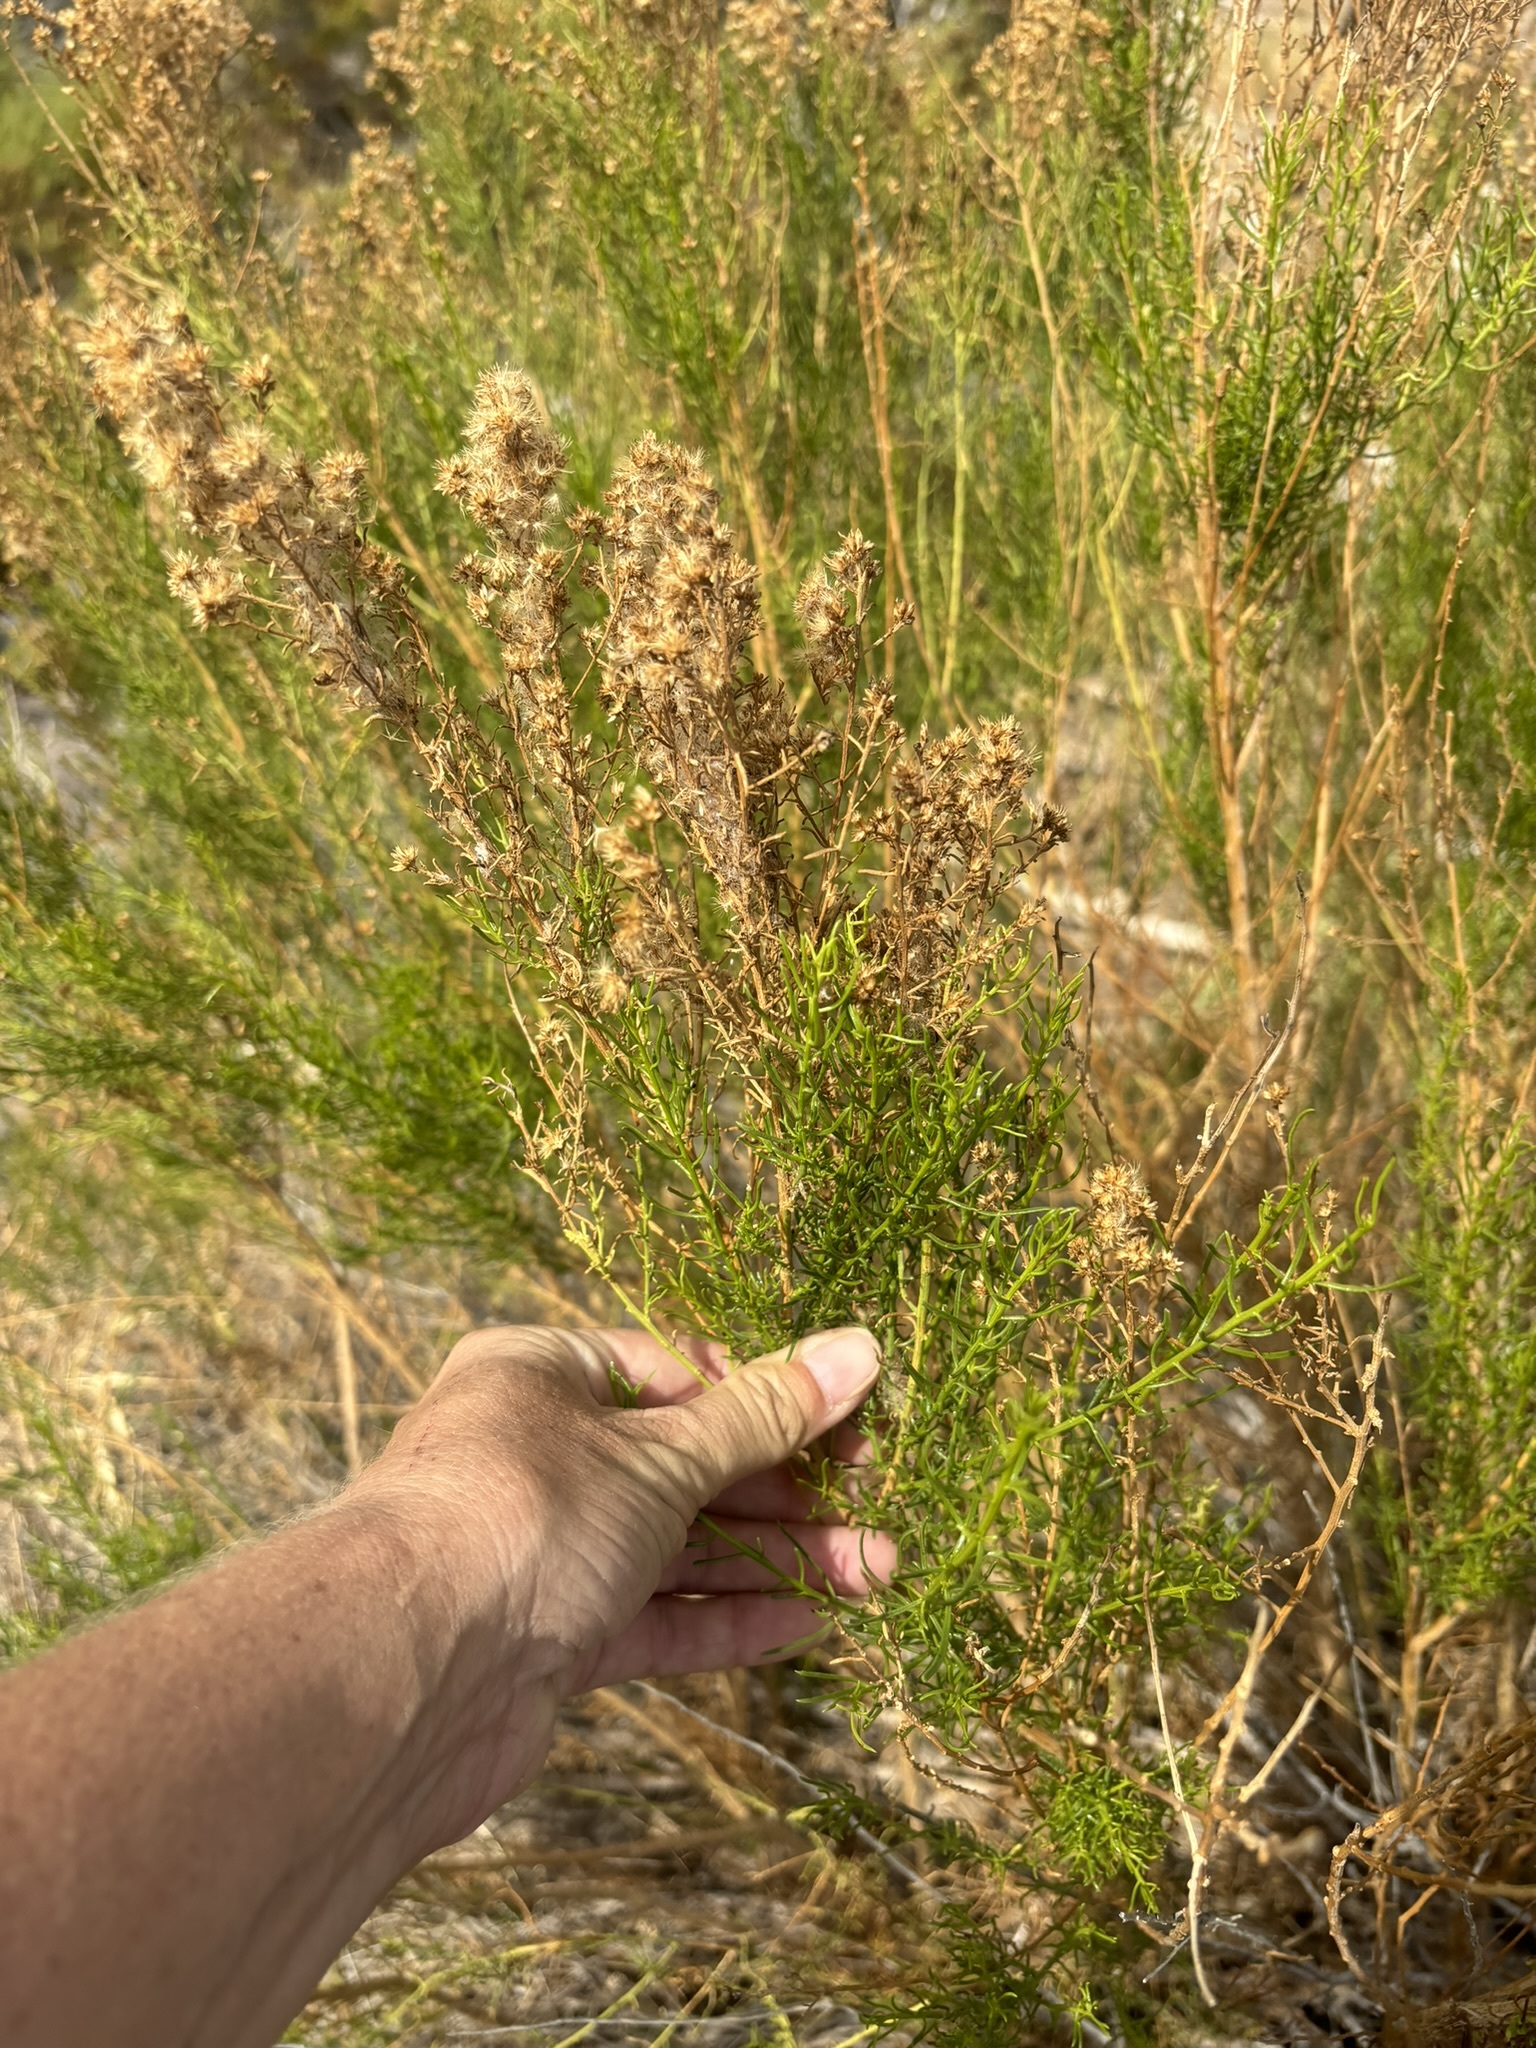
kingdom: Plantae
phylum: Tracheophyta
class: Magnoliopsida
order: Asterales
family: Asteraceae
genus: Gundlachia
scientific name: Gundlachia diffusa
